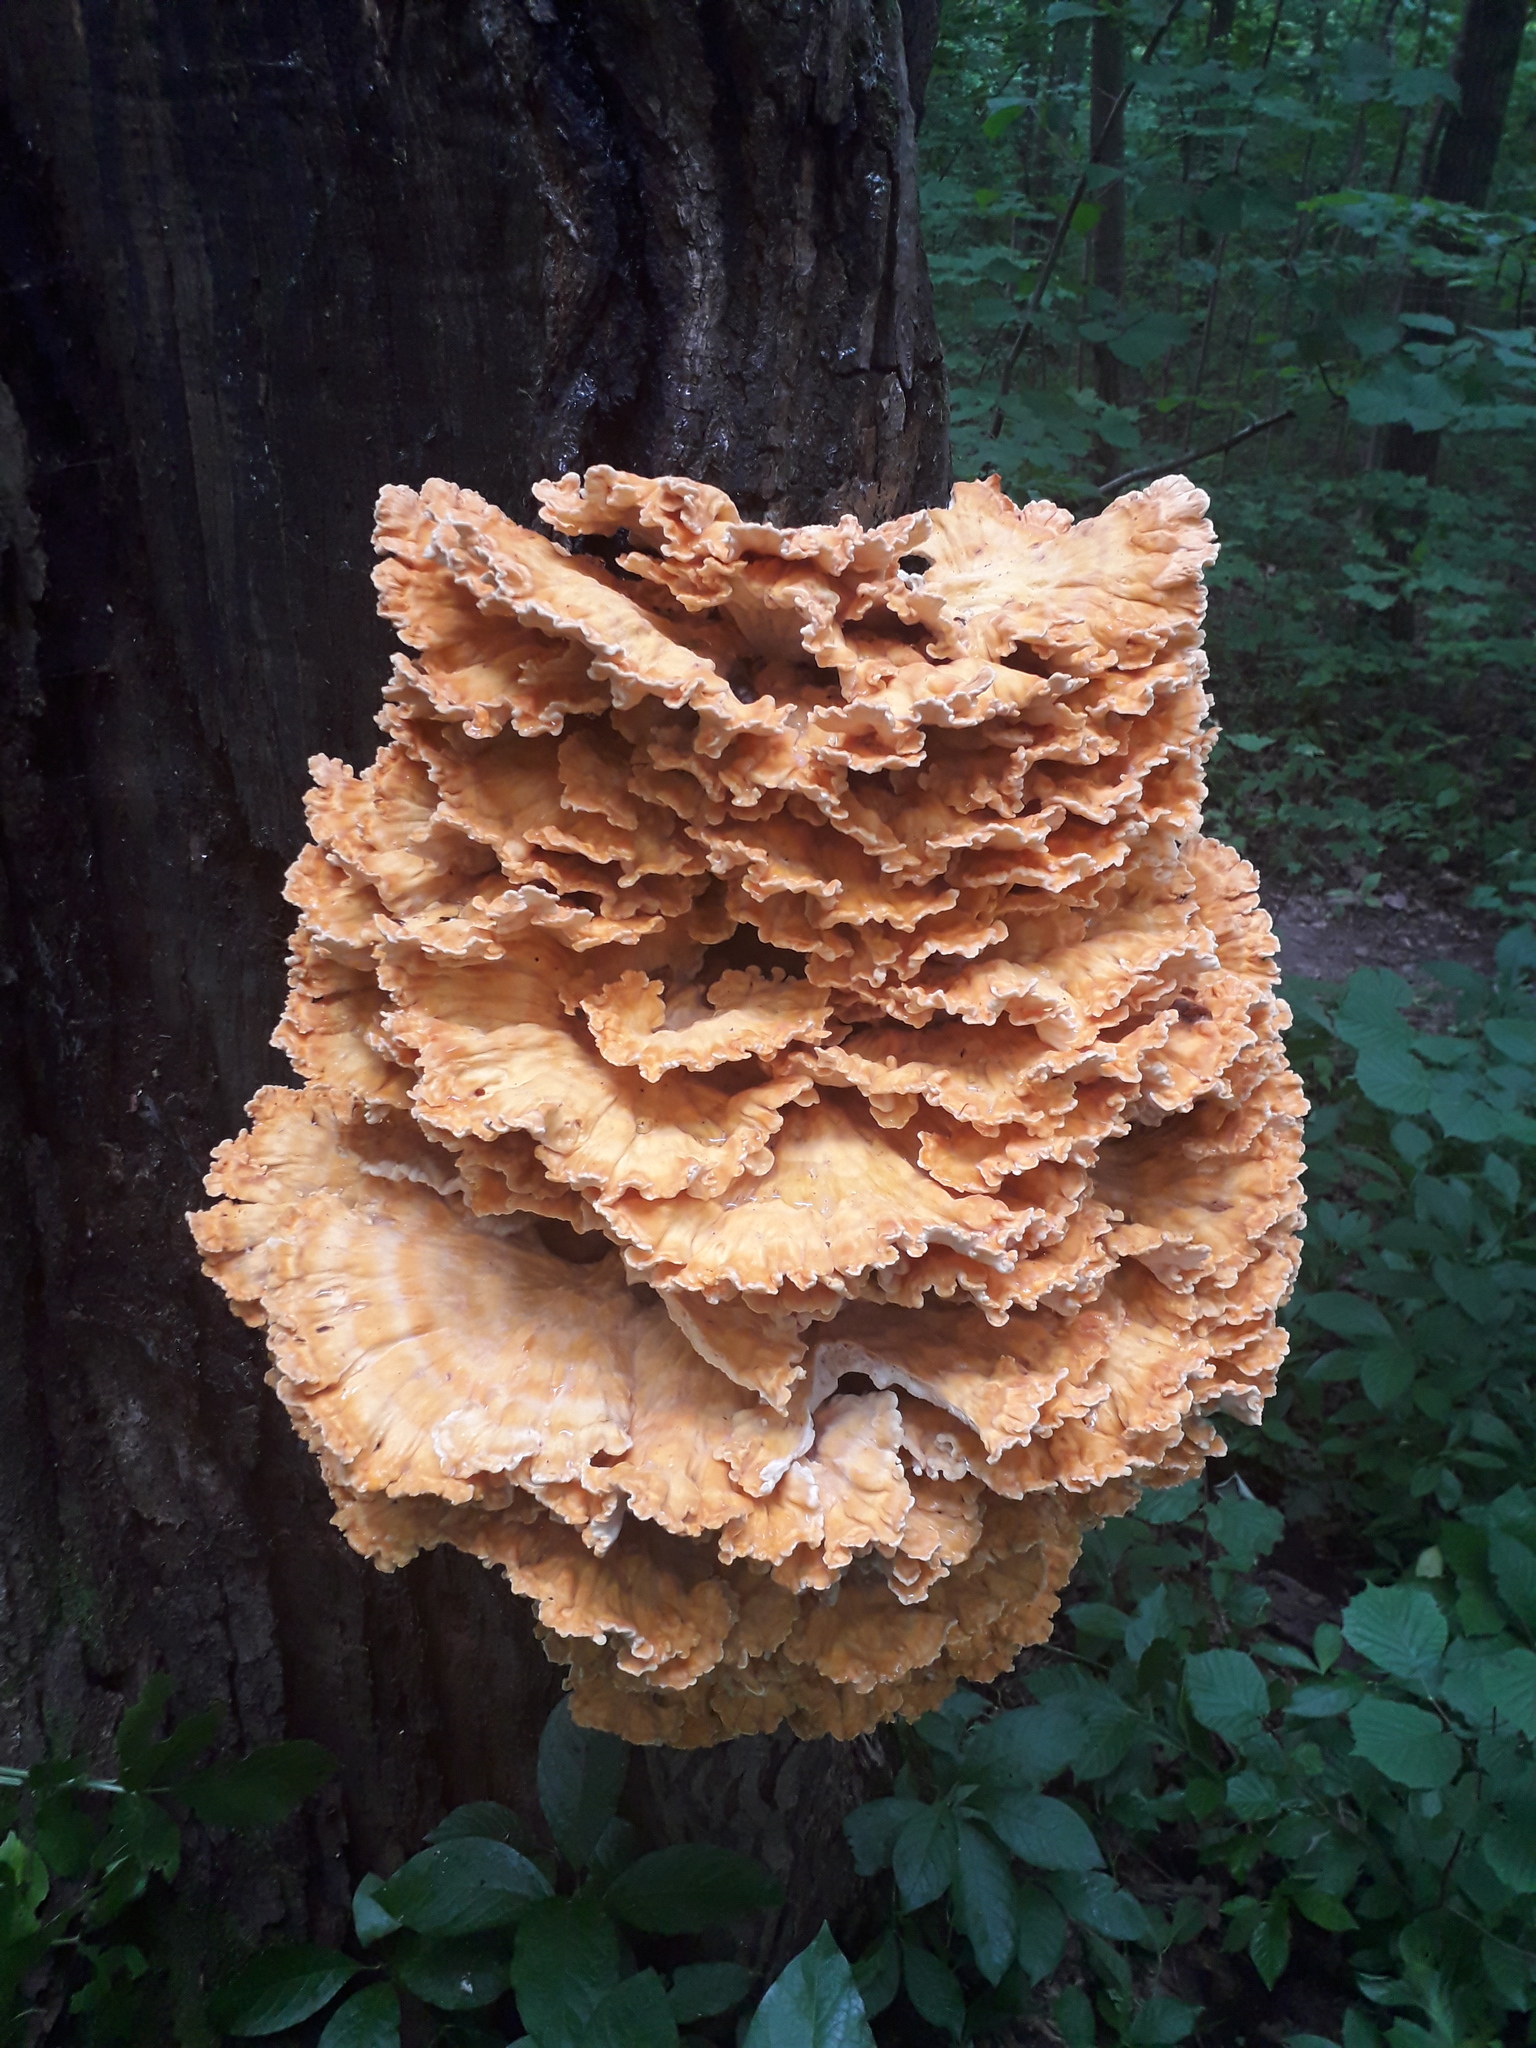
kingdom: Fungi
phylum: Basidiomycota
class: Agaricomycetes
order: Polyporales
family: Laetiporaceae
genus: Laetiporus
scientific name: Laetiporus sulphureus
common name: Chicken of the woods
